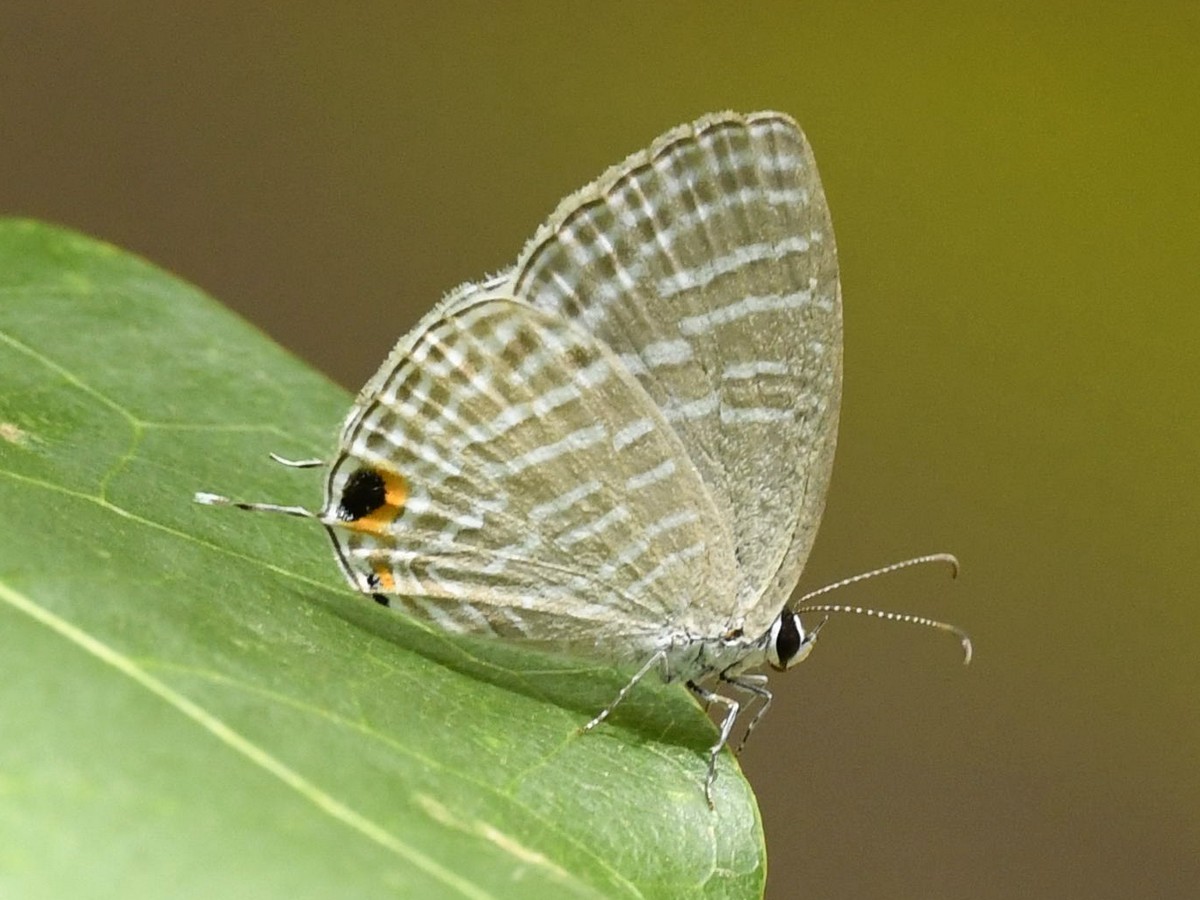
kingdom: Animalia
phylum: Arthropoda
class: Insecta
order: Lepidoptera
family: Lycaenidae
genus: Jamides
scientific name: Jamides celeno
